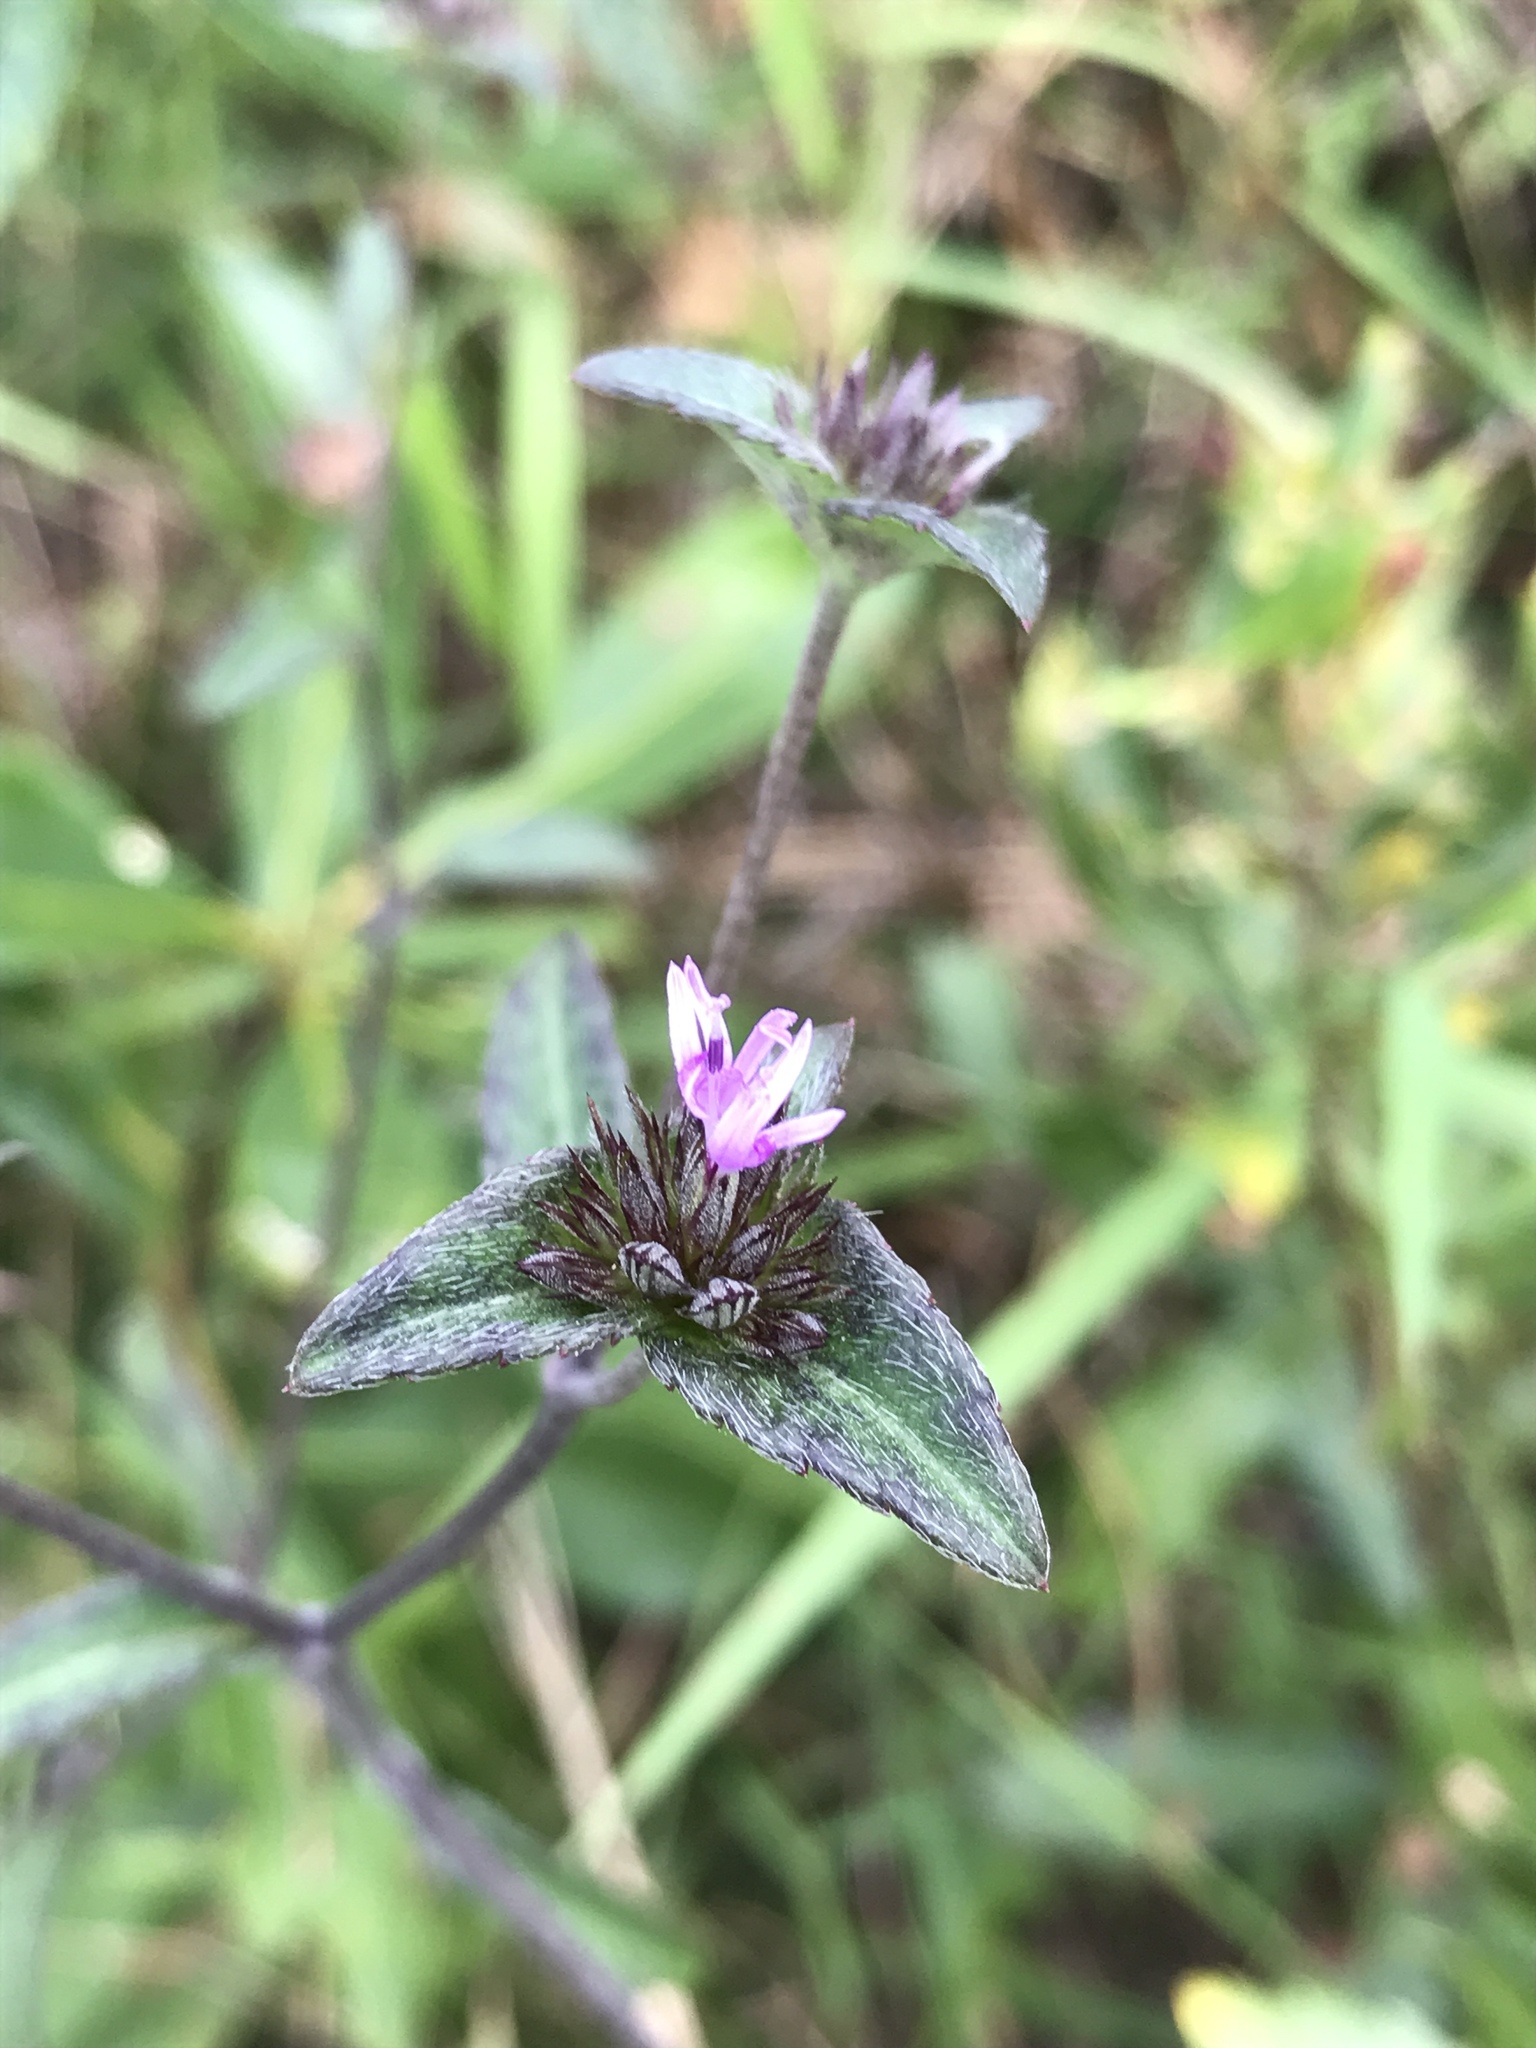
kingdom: Plantae
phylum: Tracheophyta
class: Magnoliopsida
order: Asterales
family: Asteraceae
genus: Elephantopus
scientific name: Elephantopus tomentosus
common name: Tobacco-weed
